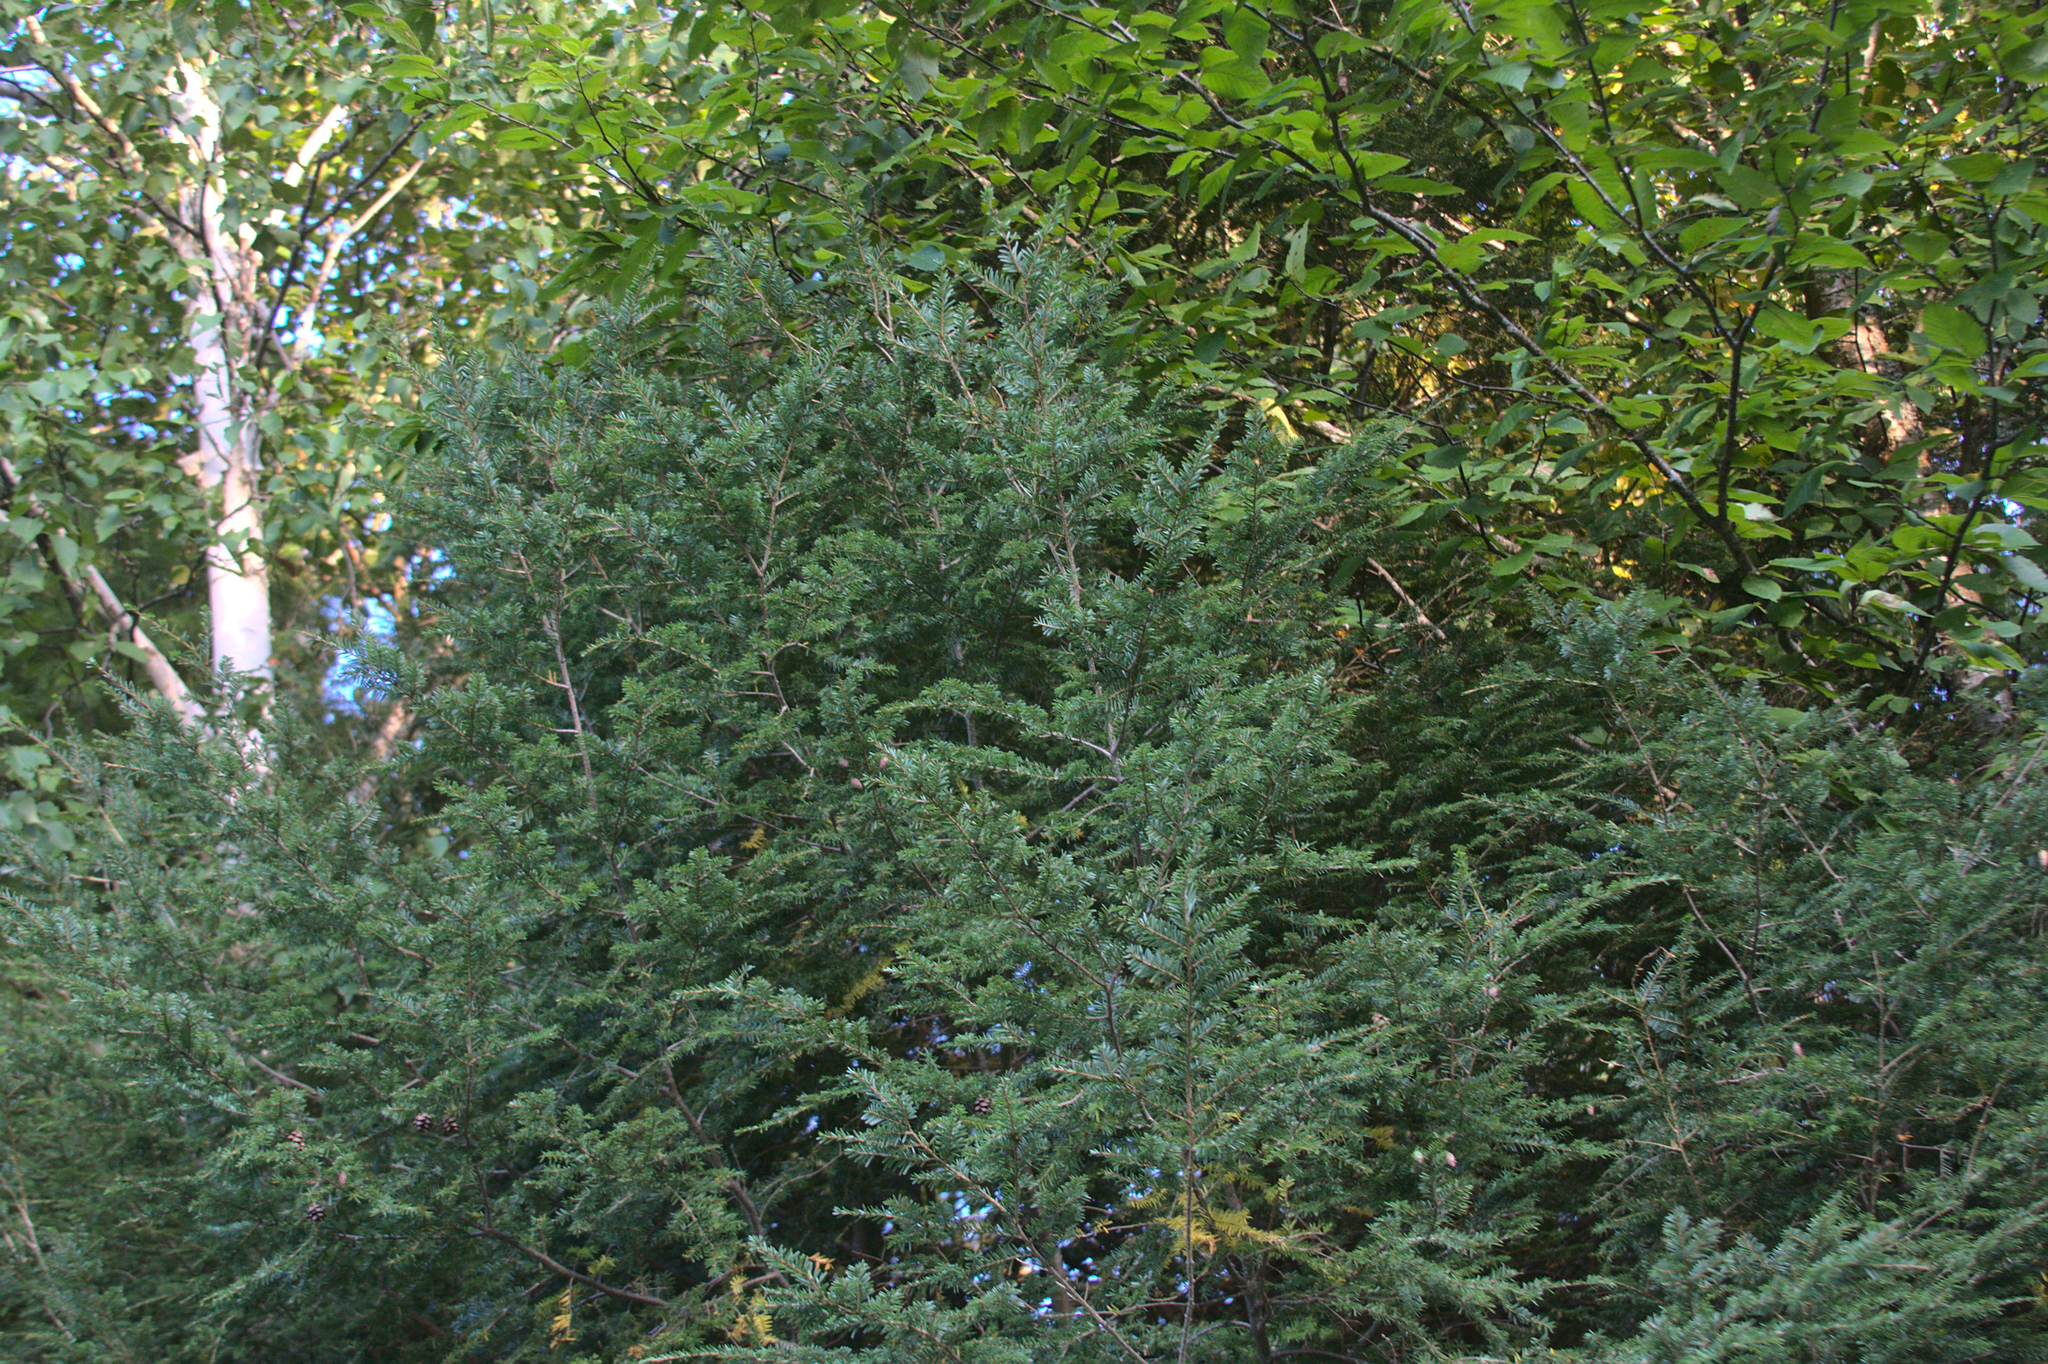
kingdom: Plantae
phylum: Tracheophyta
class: Pinopsida
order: Pinales
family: Pinaceae
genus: Tsuga
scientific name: Tsuga canadensis
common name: Eastern hemlock
